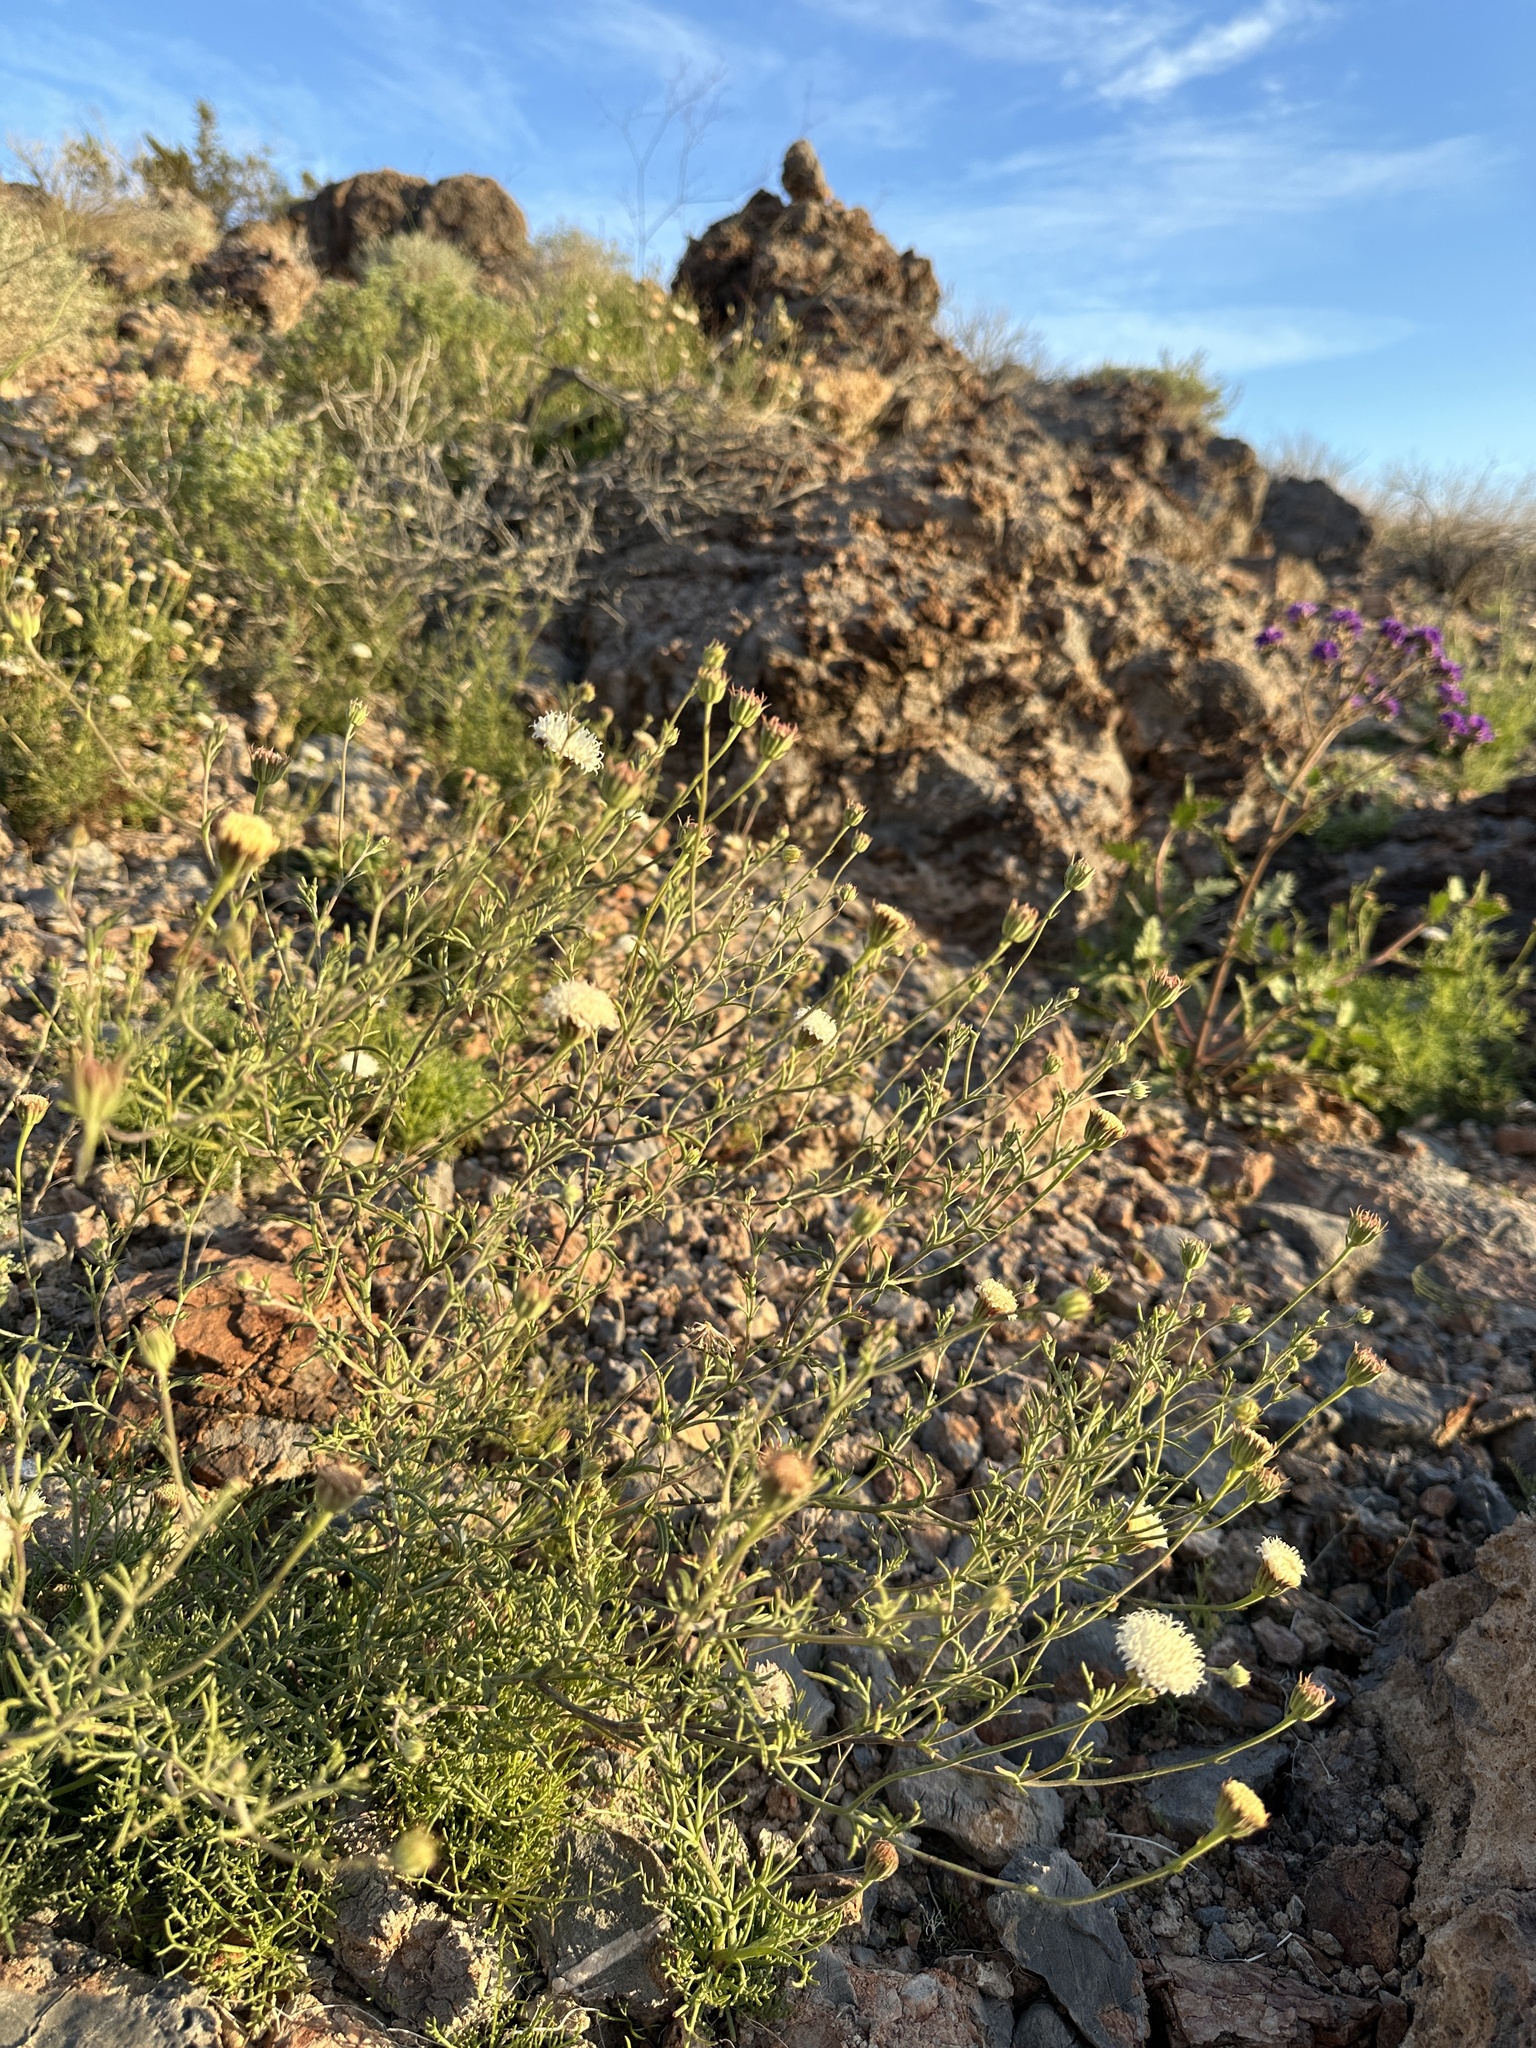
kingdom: Plantae
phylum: Tracheophyta
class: Magnoliopsida
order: Asterales
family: Asteraceae
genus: Chaenactis
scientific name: Chaenactis carphoclinia
